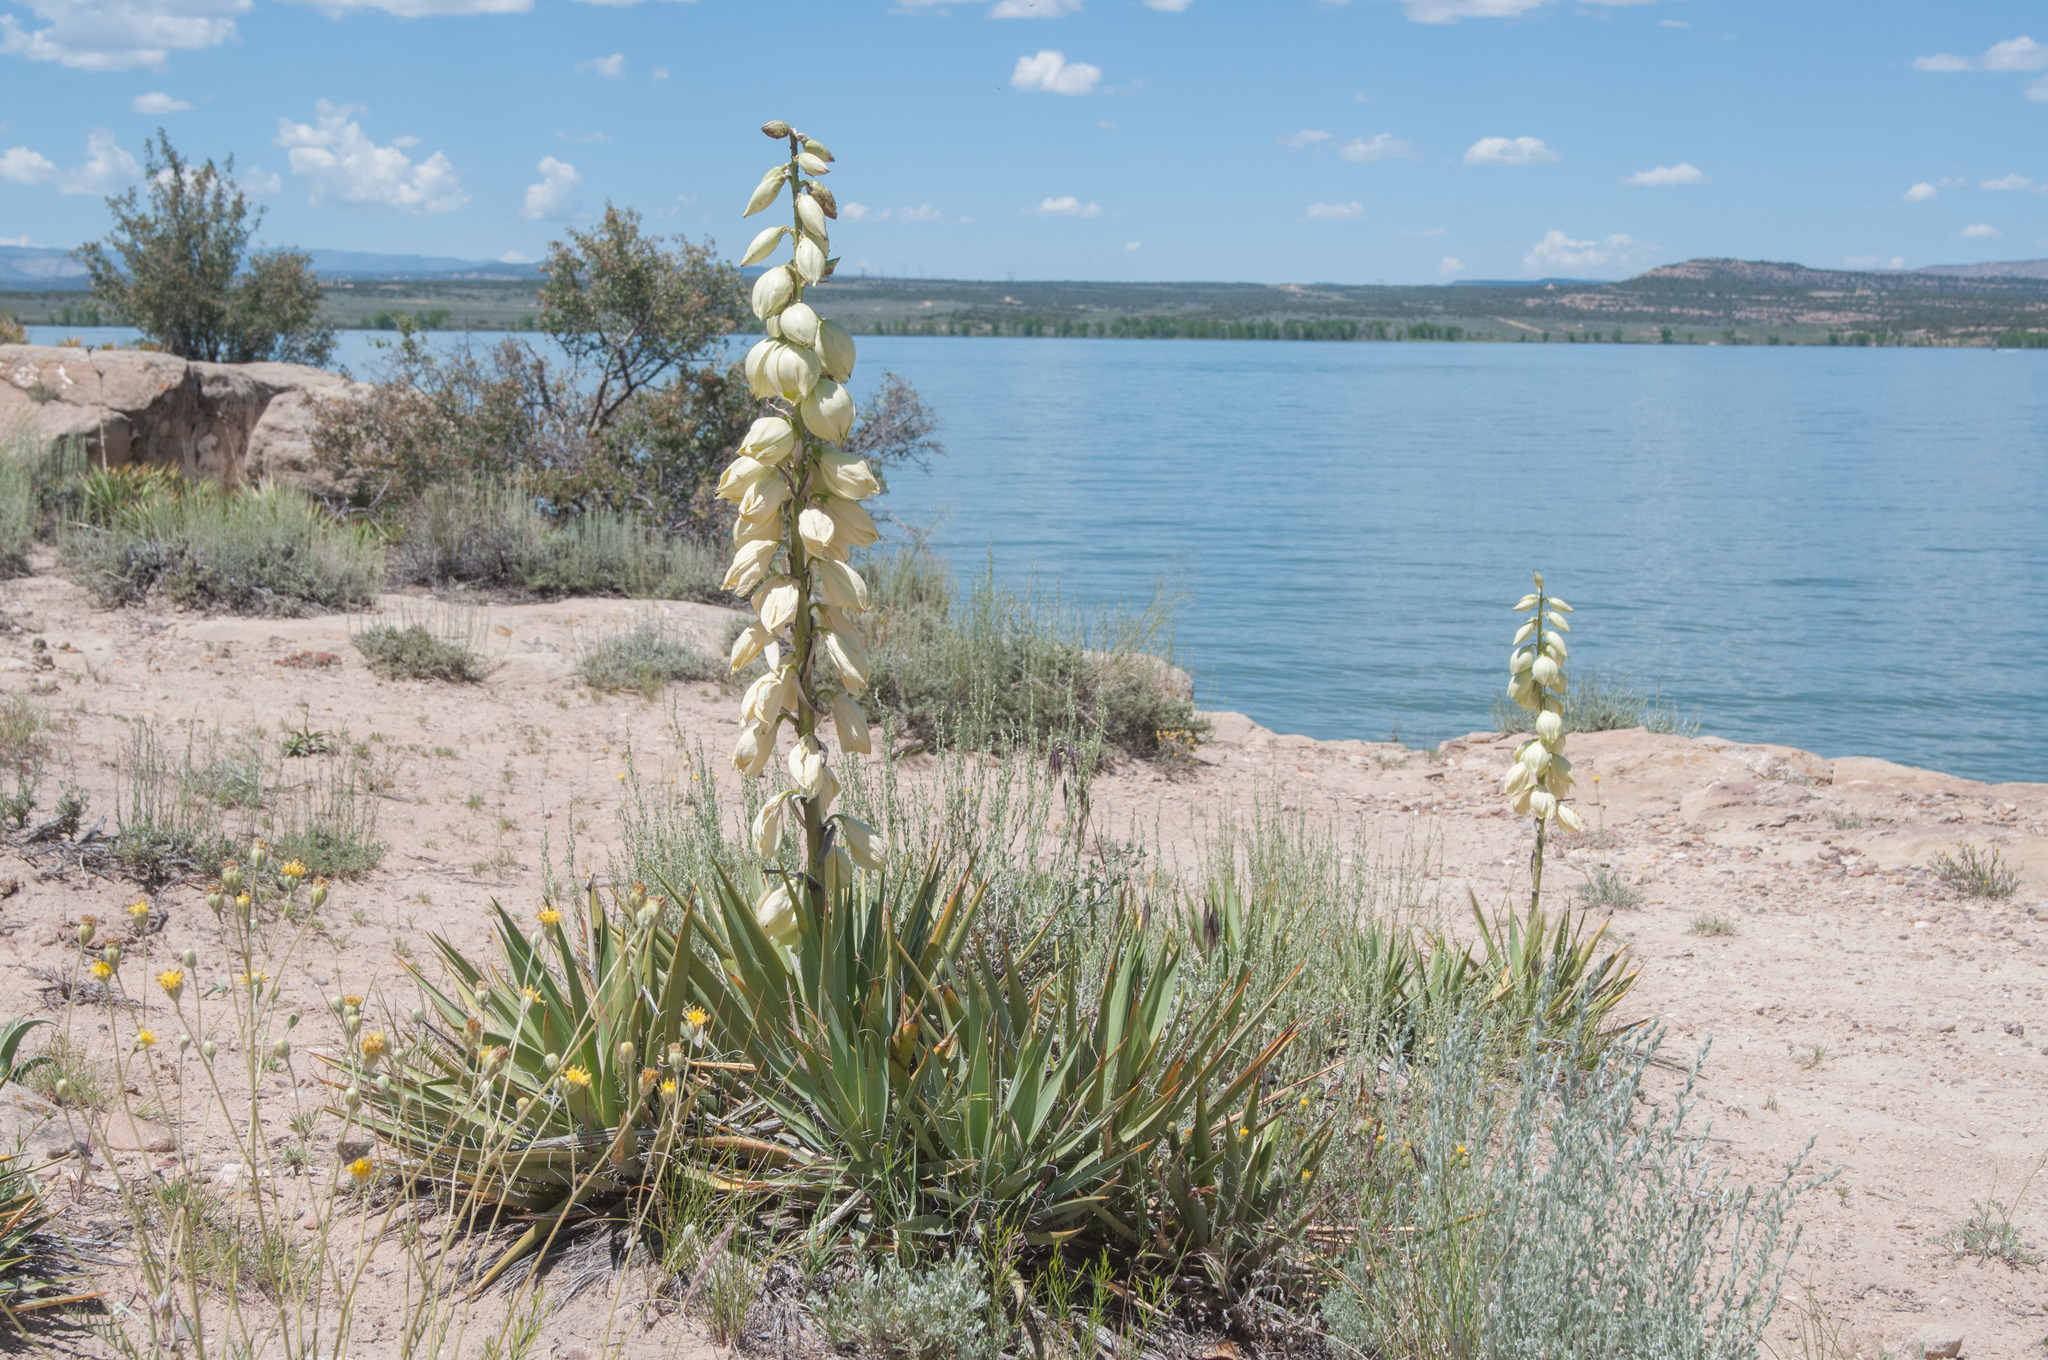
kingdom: Plantae
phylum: Tracheophyta
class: Liliopsida
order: Asparagales
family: Asparagaceae
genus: Yucca
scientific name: Yucca harrimaniae
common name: Harriman's yucca
